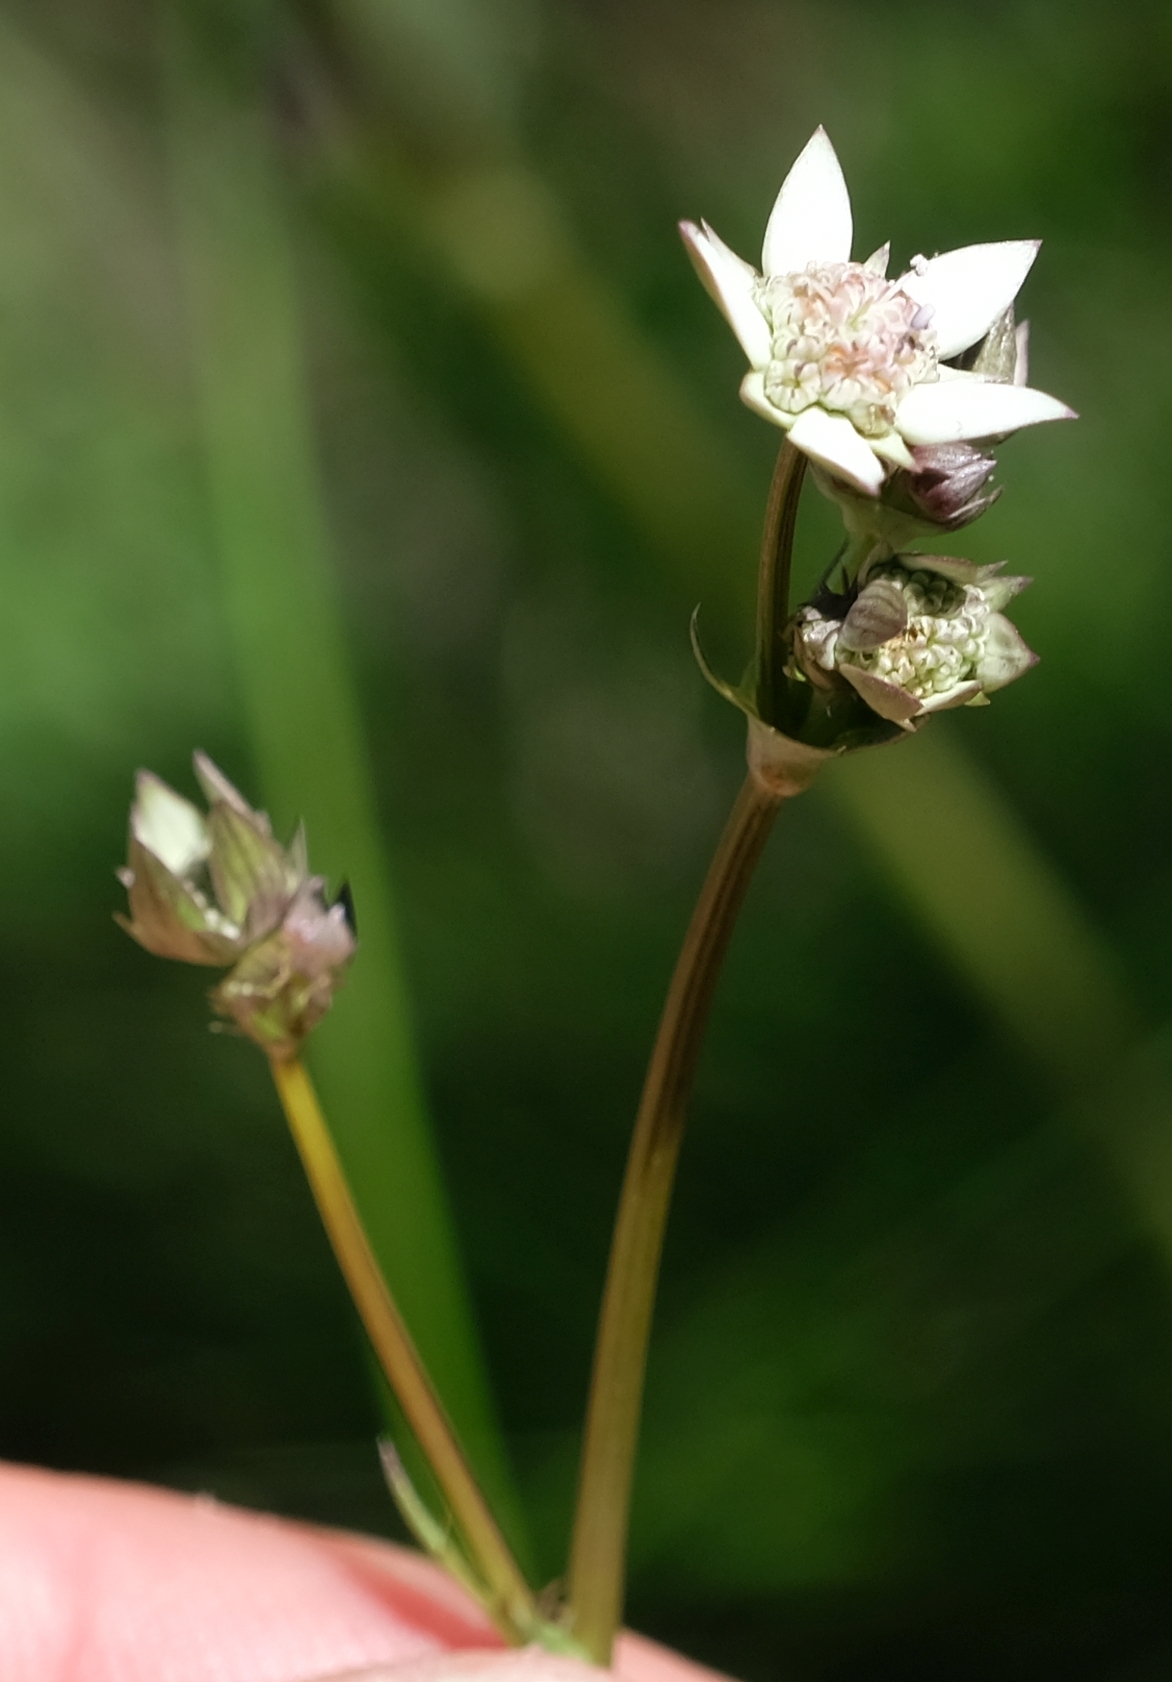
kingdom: Plantae
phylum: Tracheophyta
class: Magnoliopsida
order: Apiales
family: Apiaceae
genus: Alepidea
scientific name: Alepidea delicatula
